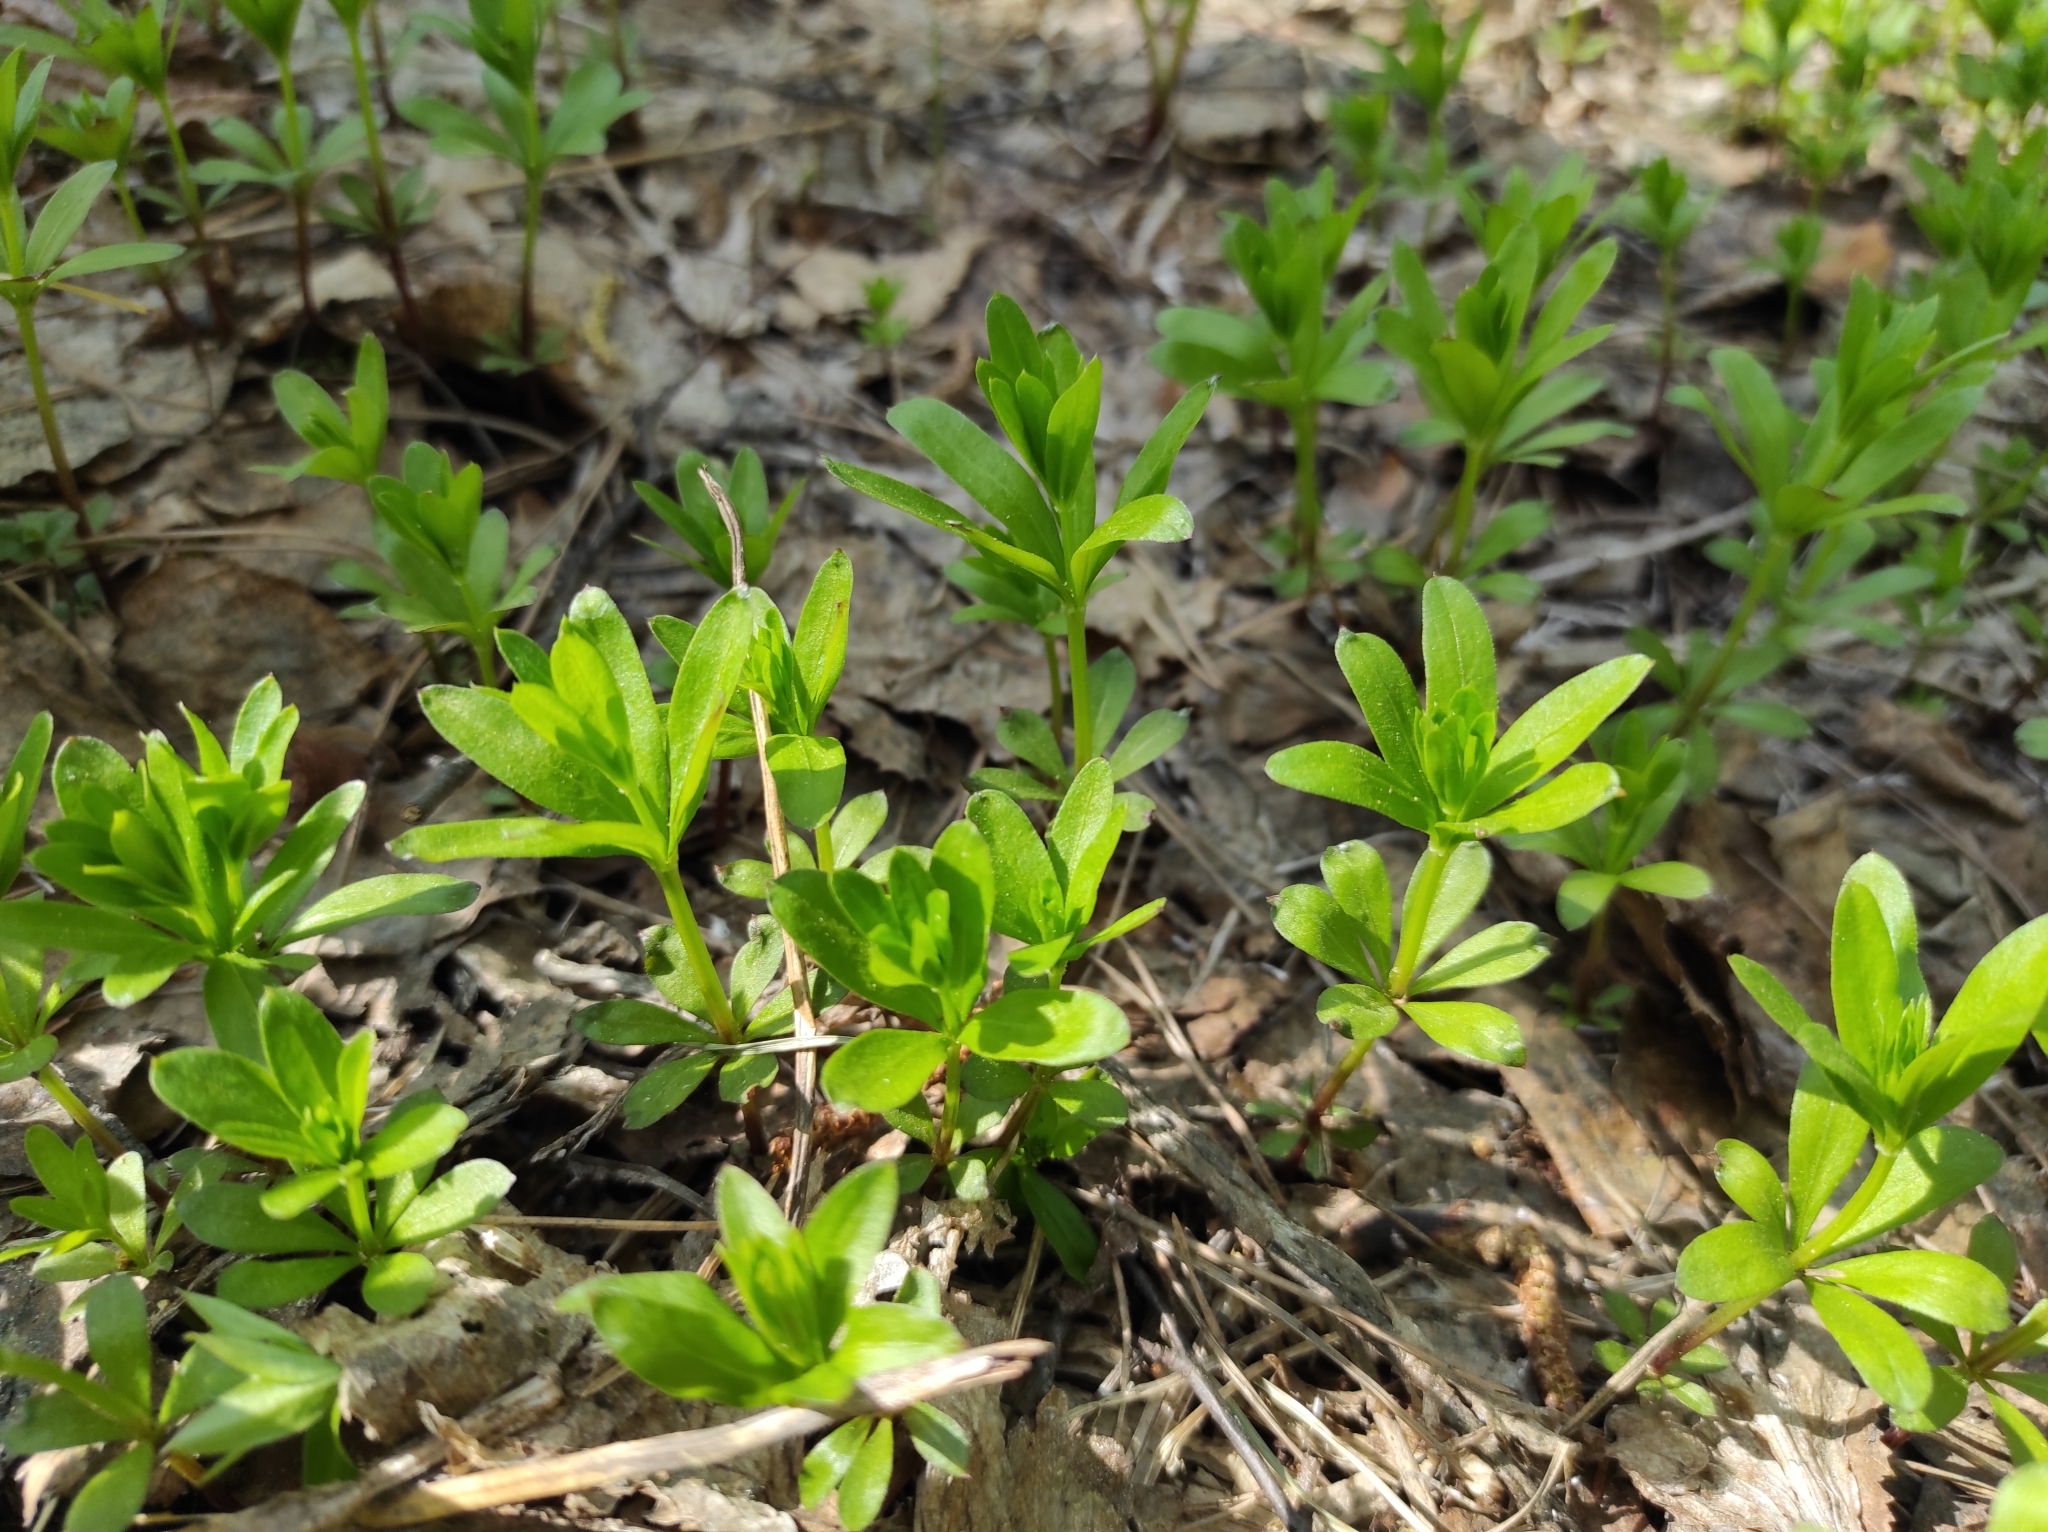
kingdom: Plantae
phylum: Tracheophyta
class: Magnoliopsida
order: Gentianales
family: Rubiaceae
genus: Galium
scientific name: Galium odoratum
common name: Sweet woodruff
